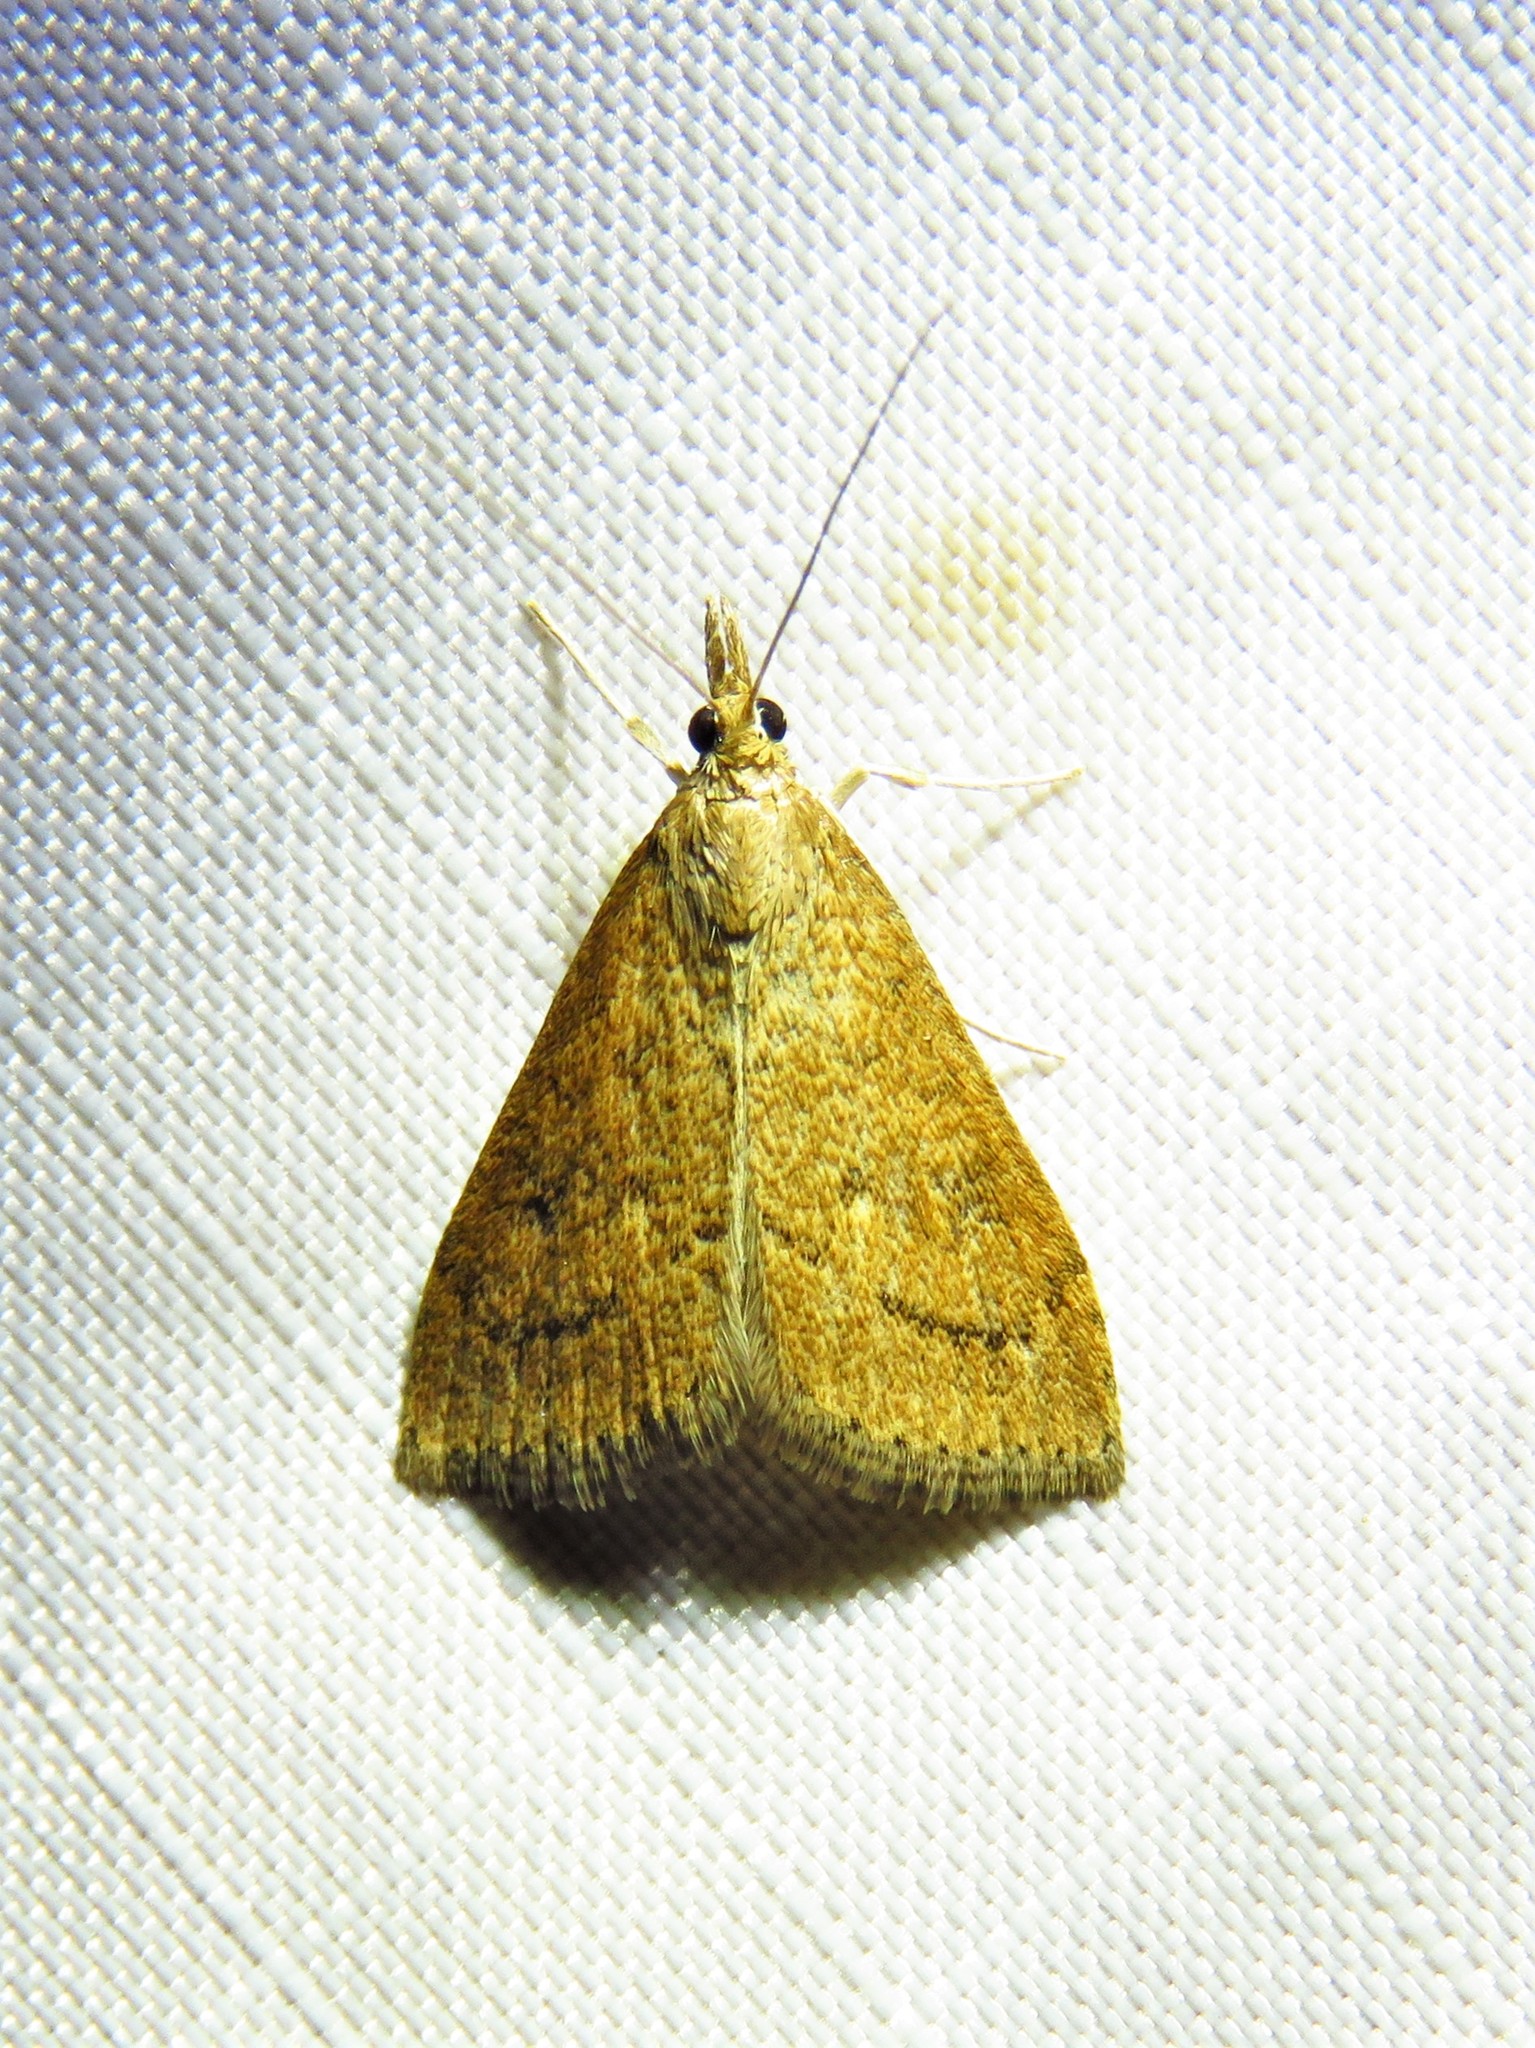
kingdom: Animalia
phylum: Arthropoda
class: Insecta
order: Lepidoptera
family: Crambidae
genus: Udea
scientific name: Udea rubigalis
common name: Celery leaftier moth
